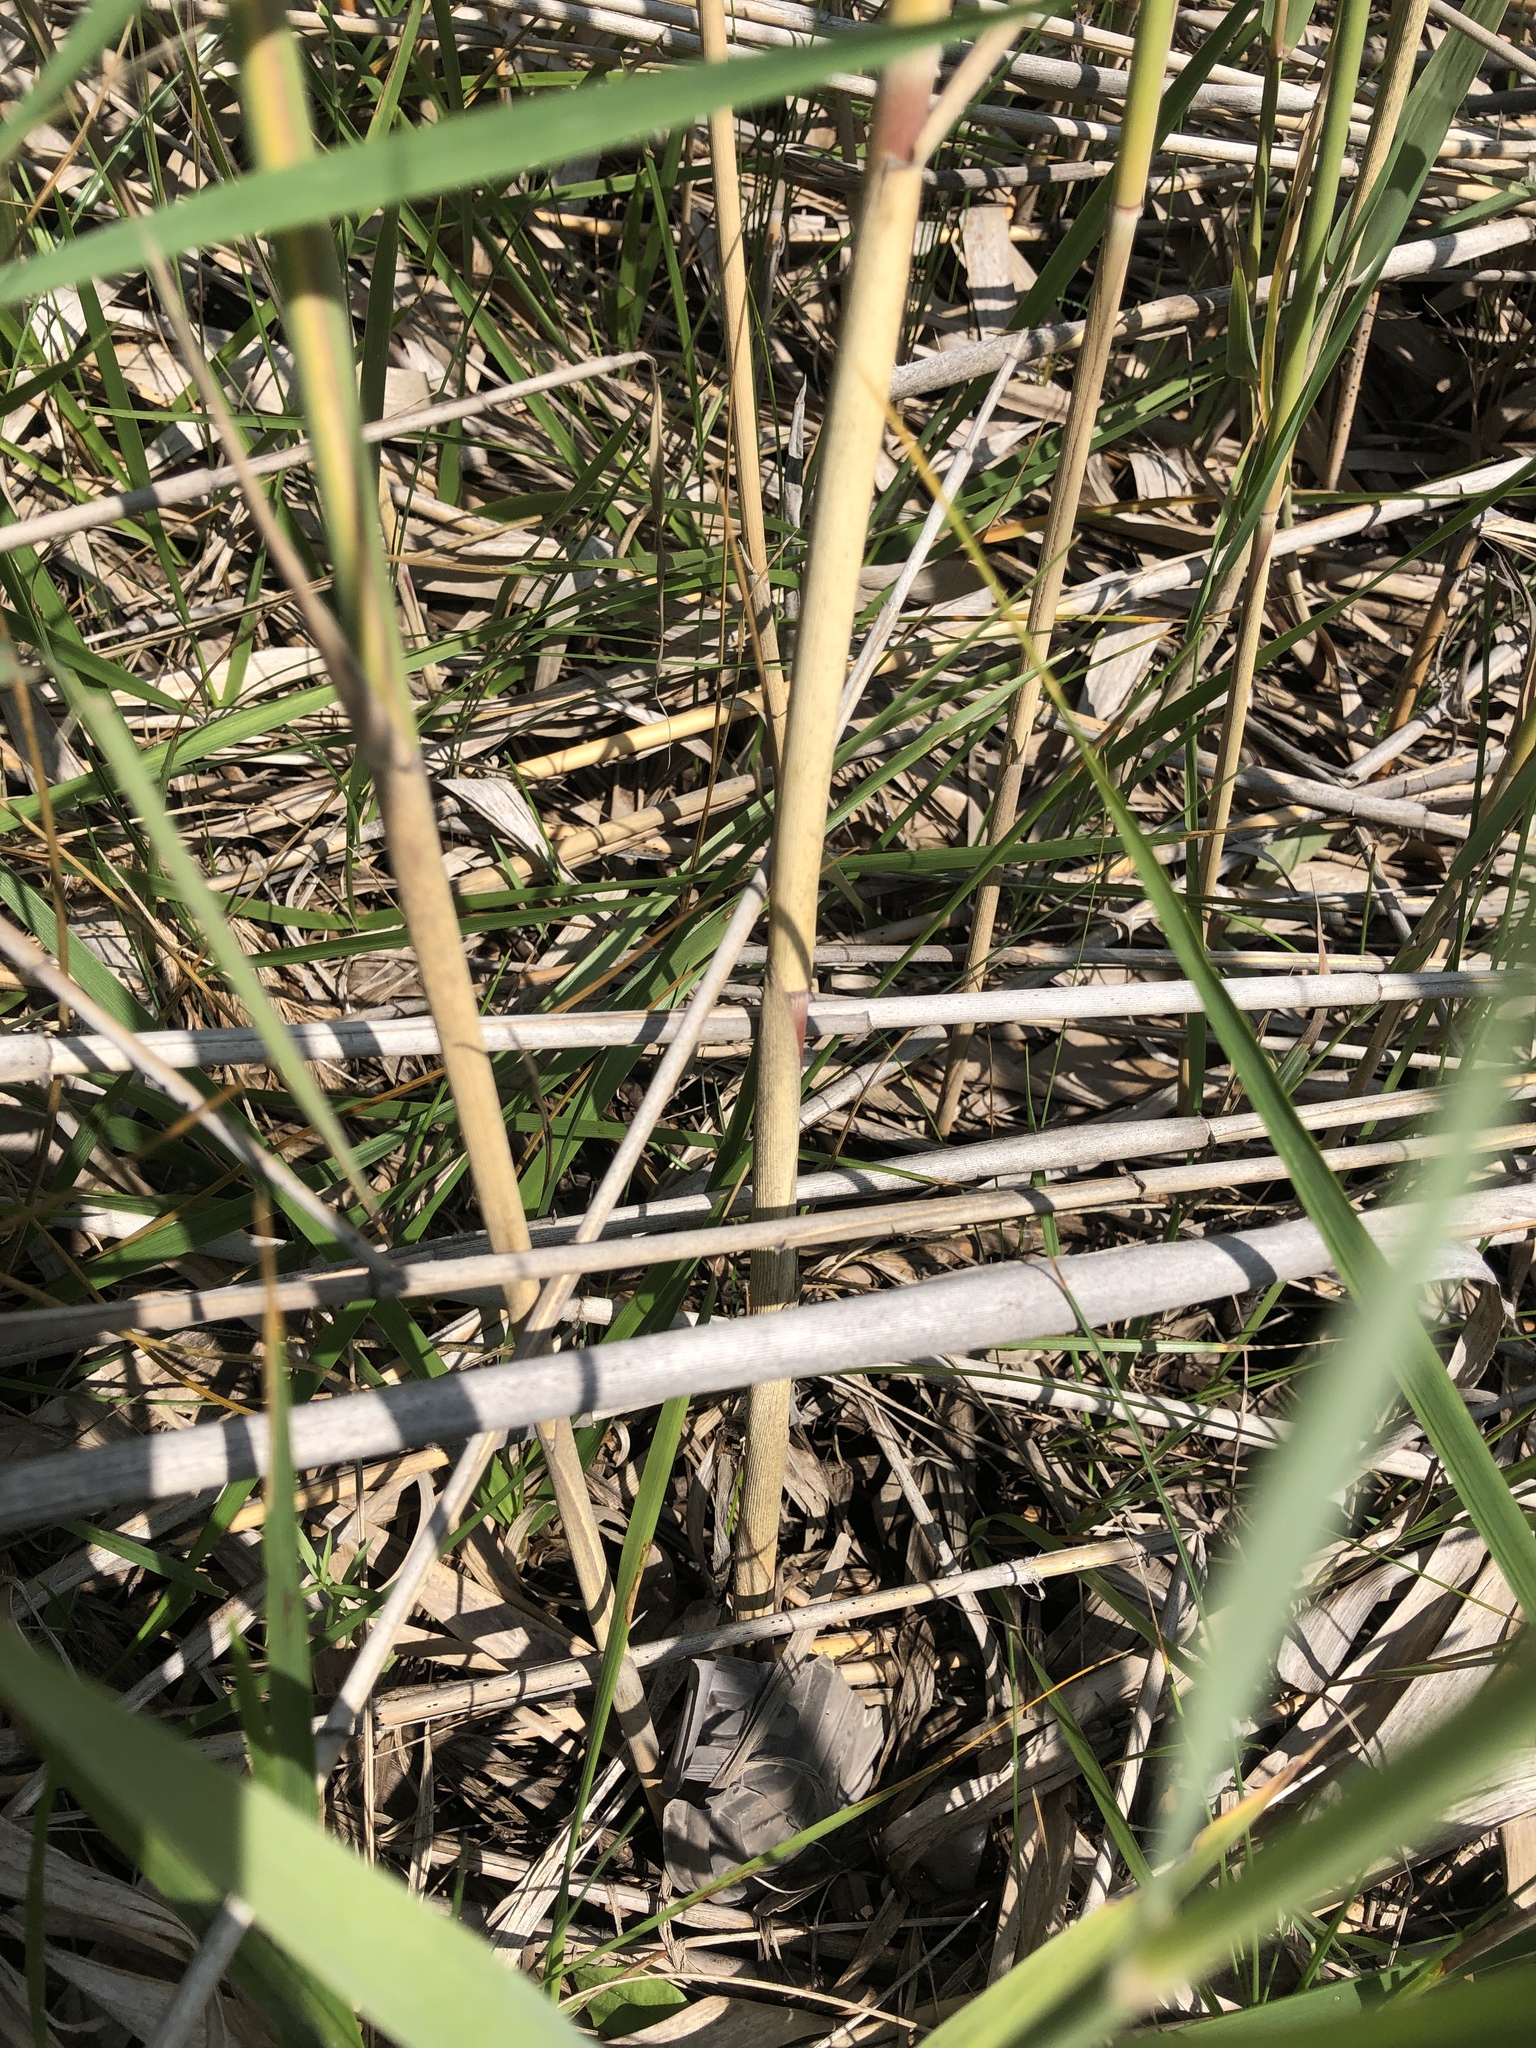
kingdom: Plantae
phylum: Tracheophyta
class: Liliopsida
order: Poales
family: Poaceae
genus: Phragmites
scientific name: Phragmites australis
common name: Common reed
